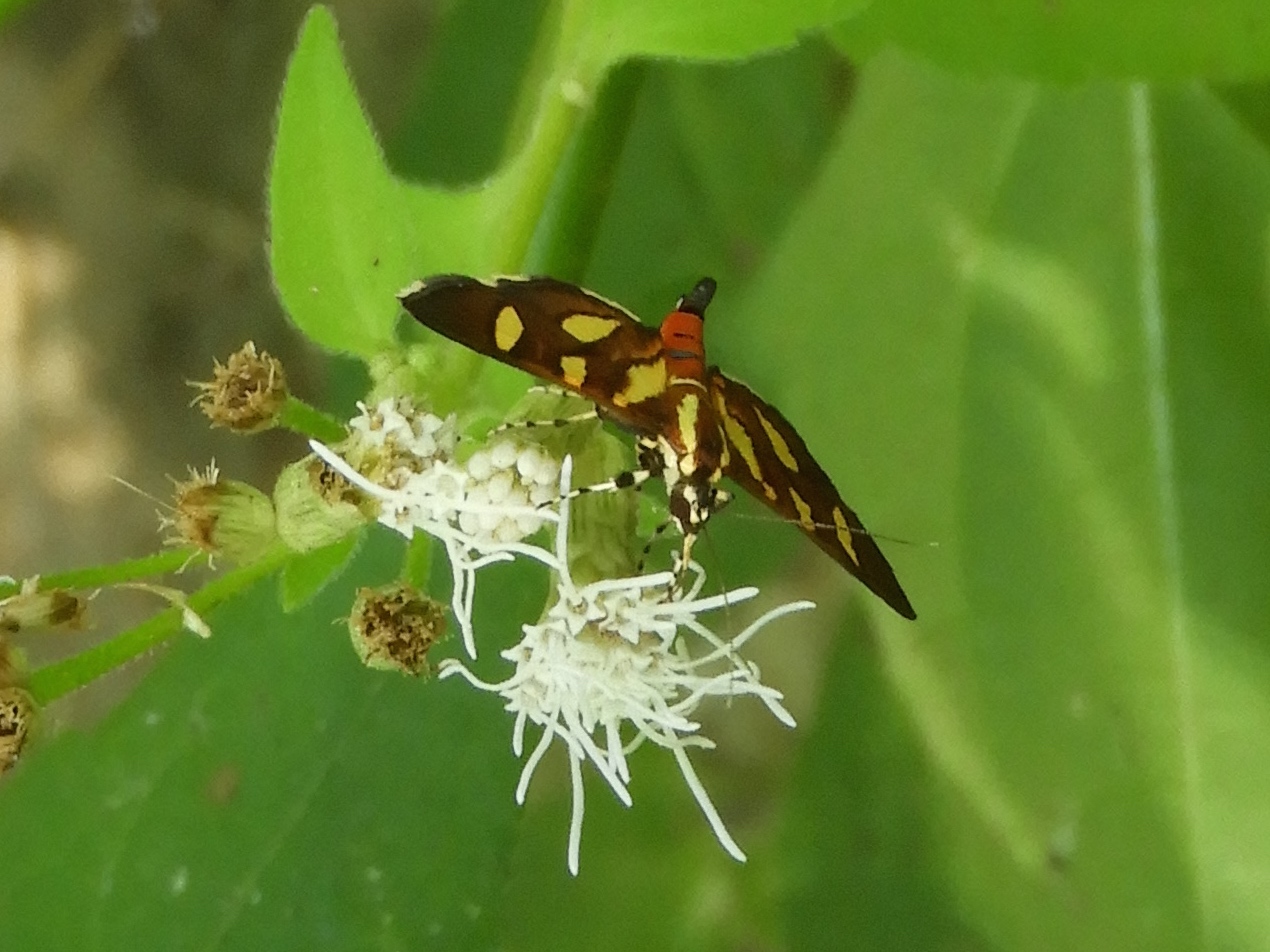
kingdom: Animalia
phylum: Arthropoda
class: Insecta
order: Lepidoptera
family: Crambidae
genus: Syngamia
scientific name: Syngamia florella
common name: Orange-spotted flower moth
